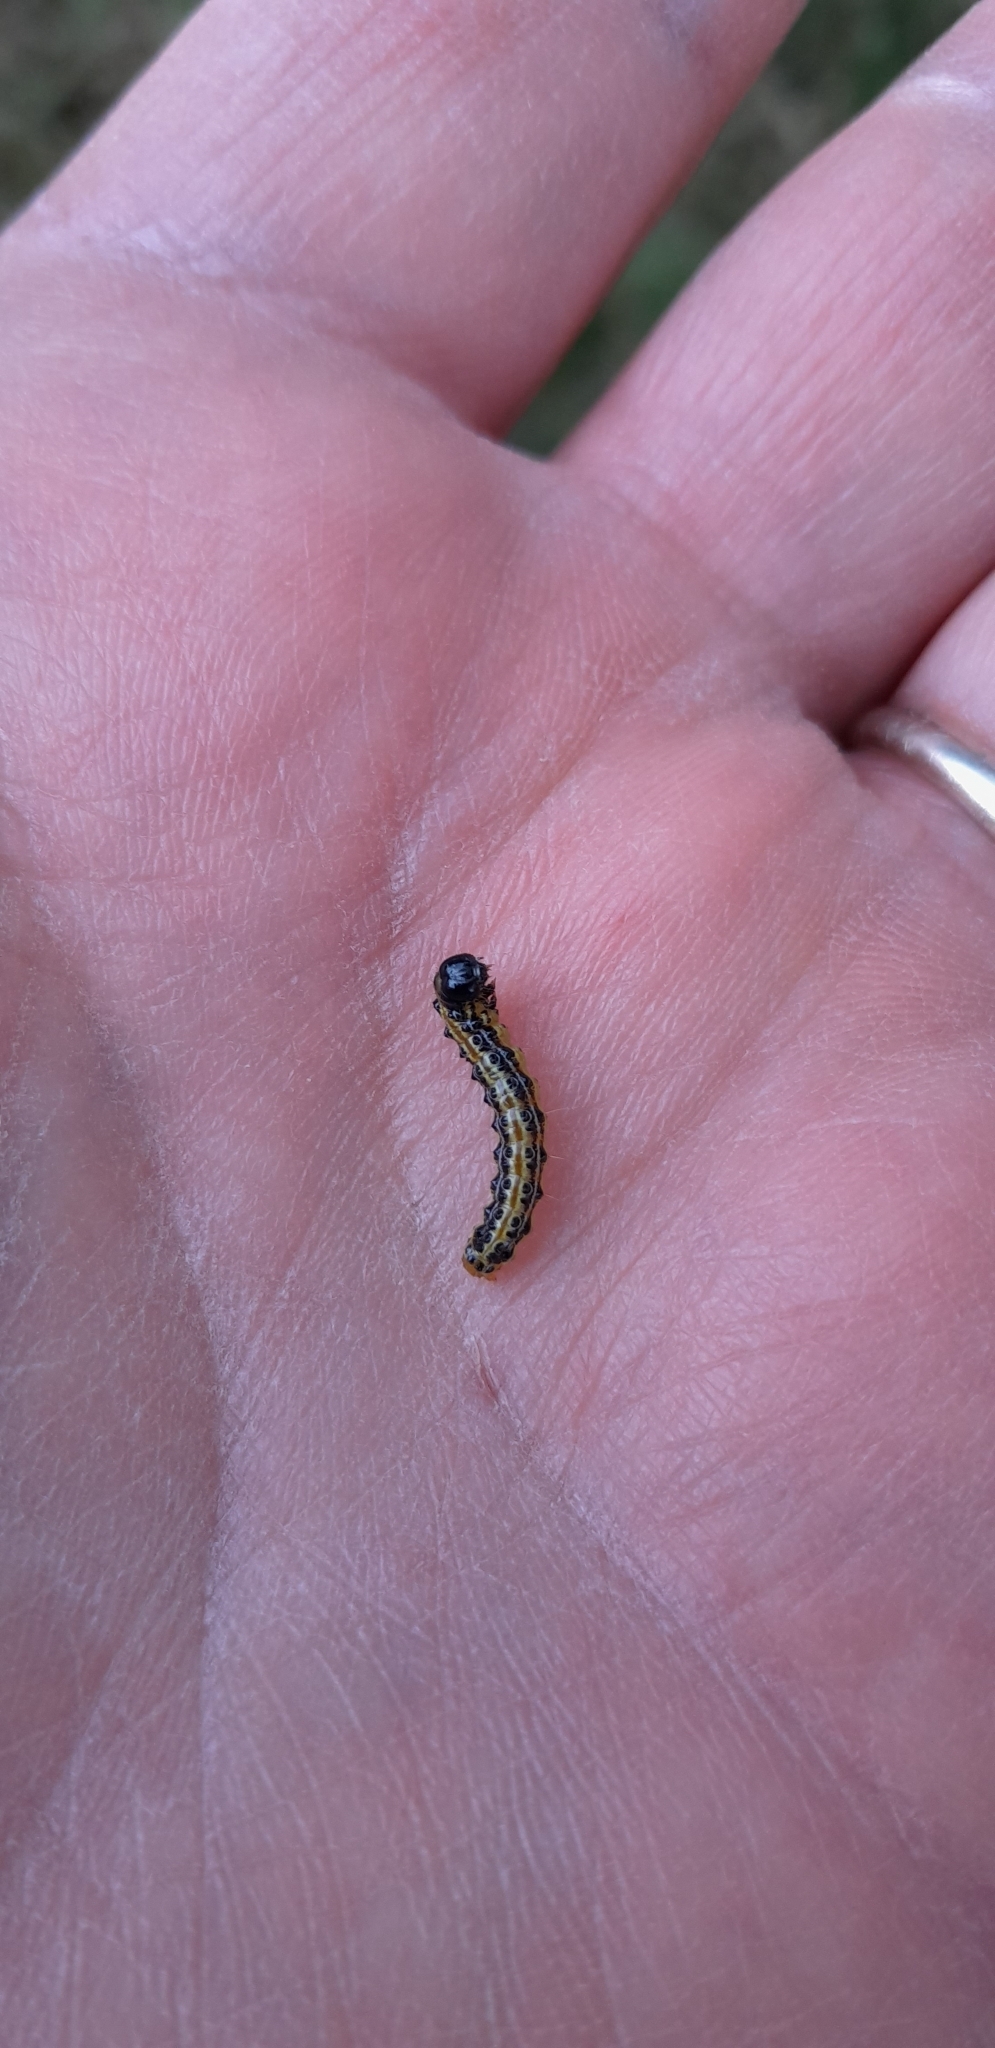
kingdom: Animalia
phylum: Arthropoda
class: Insecta
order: Lepidoptera
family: Crambidae
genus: Cydalima
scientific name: Cydalima perspectalis
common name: Box tree moth
